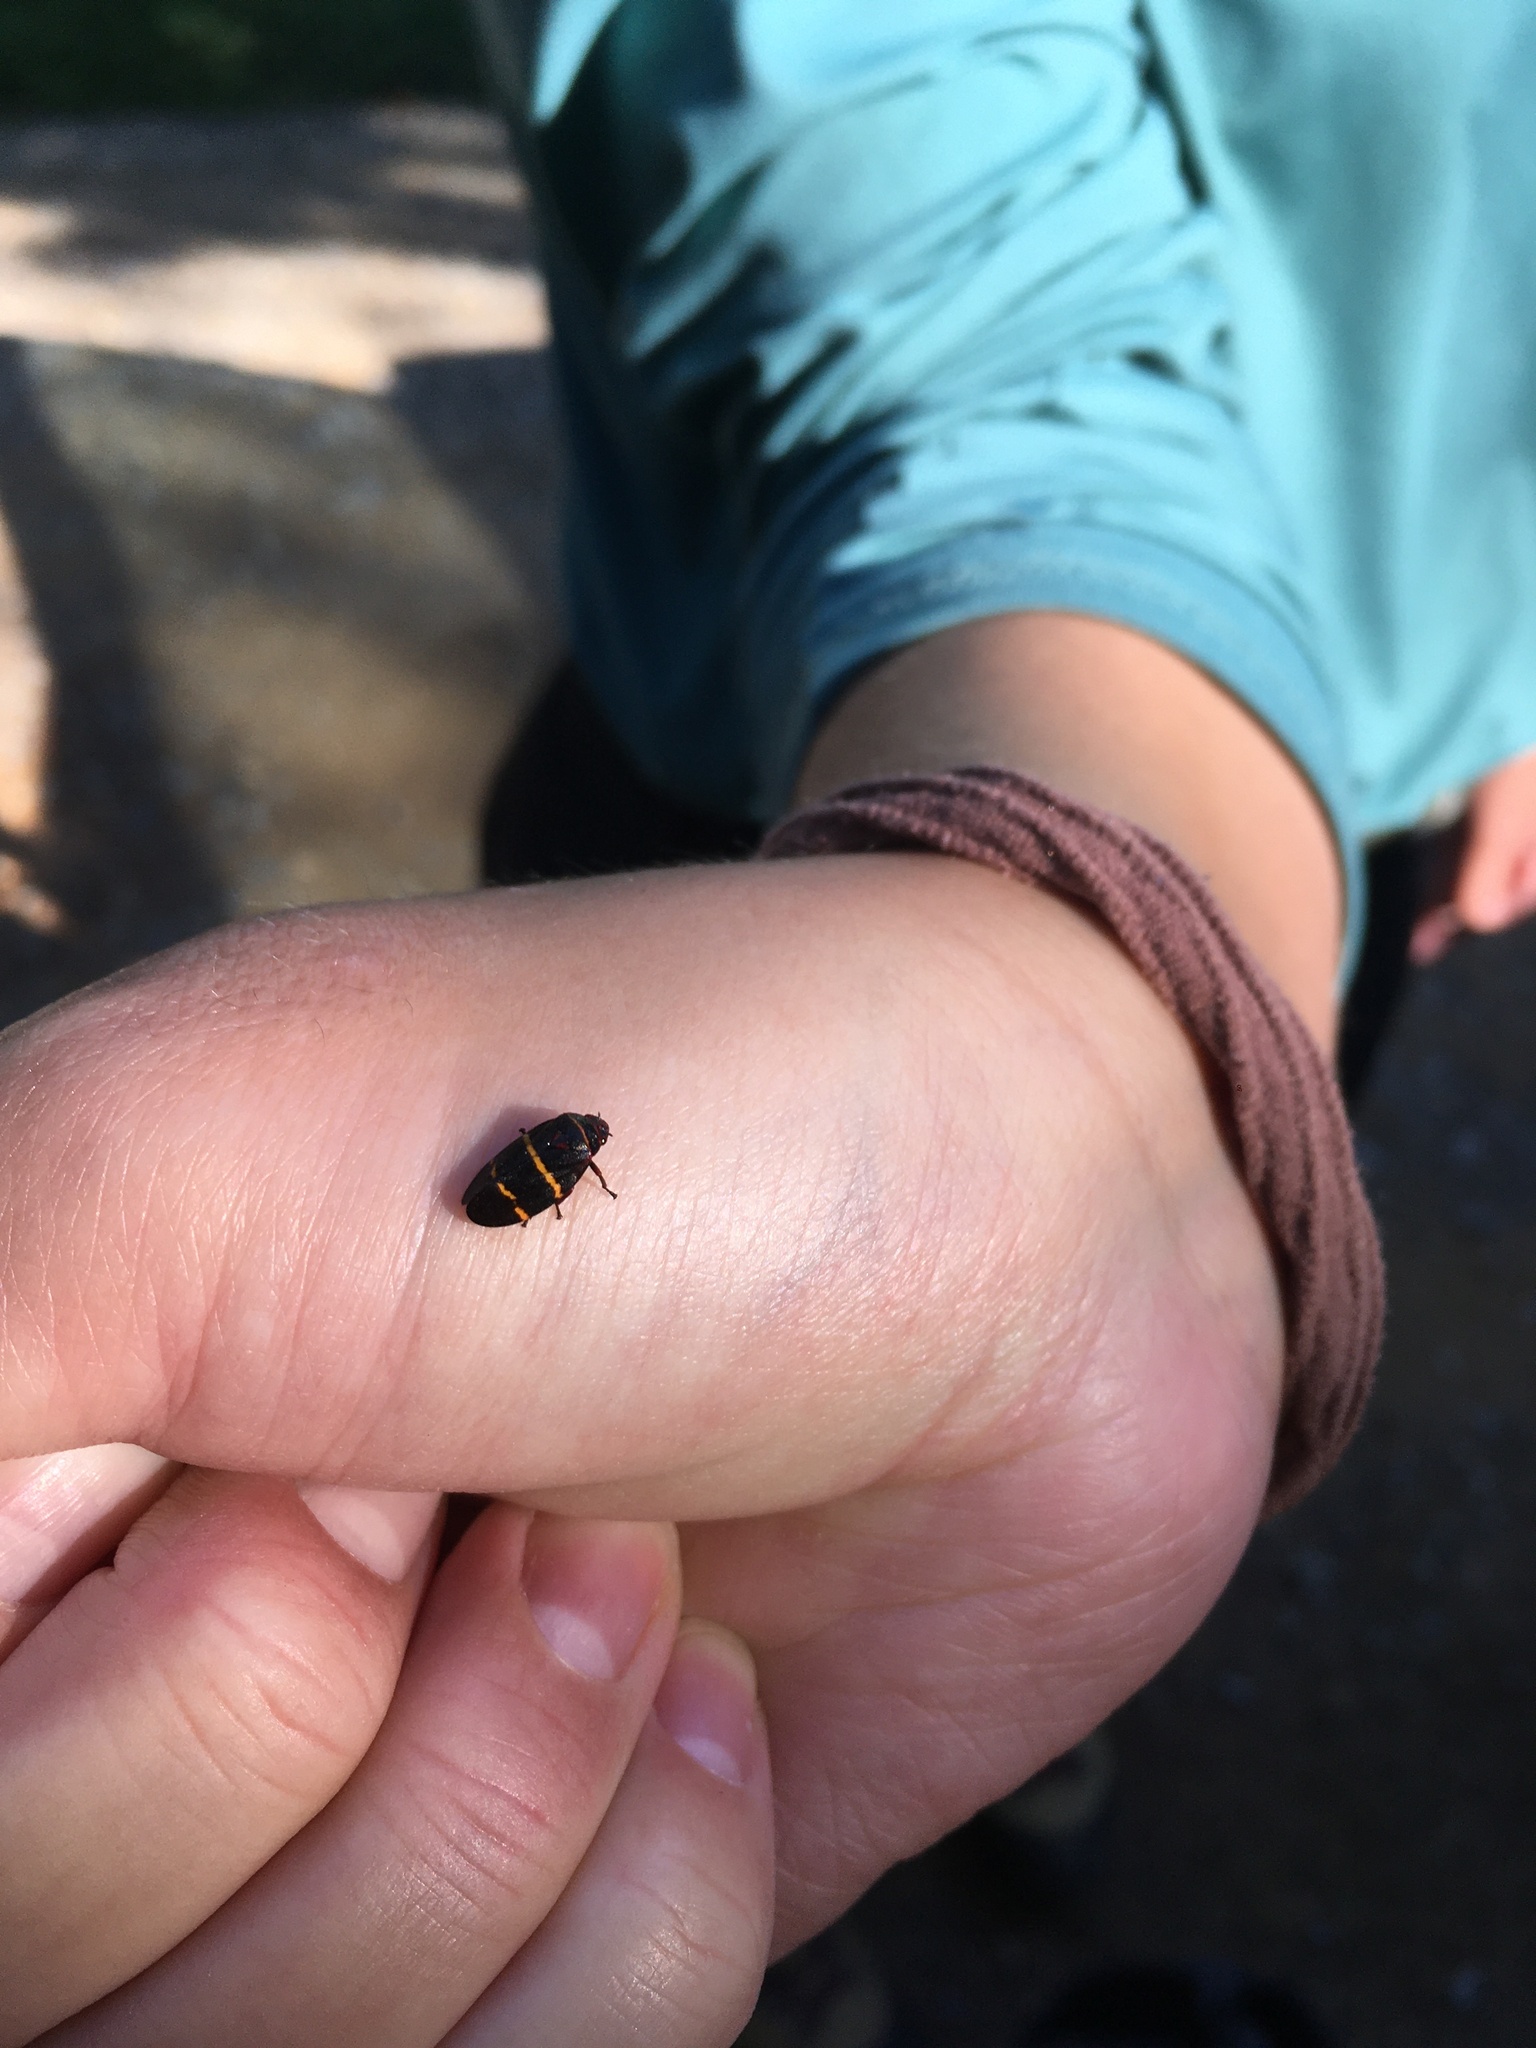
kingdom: Animalia
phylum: Arthropoda
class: Insecta
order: Hemiptera
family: Cercopidae
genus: Prosapia
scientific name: Prosapia bicincta
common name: Twolined spittlebug
